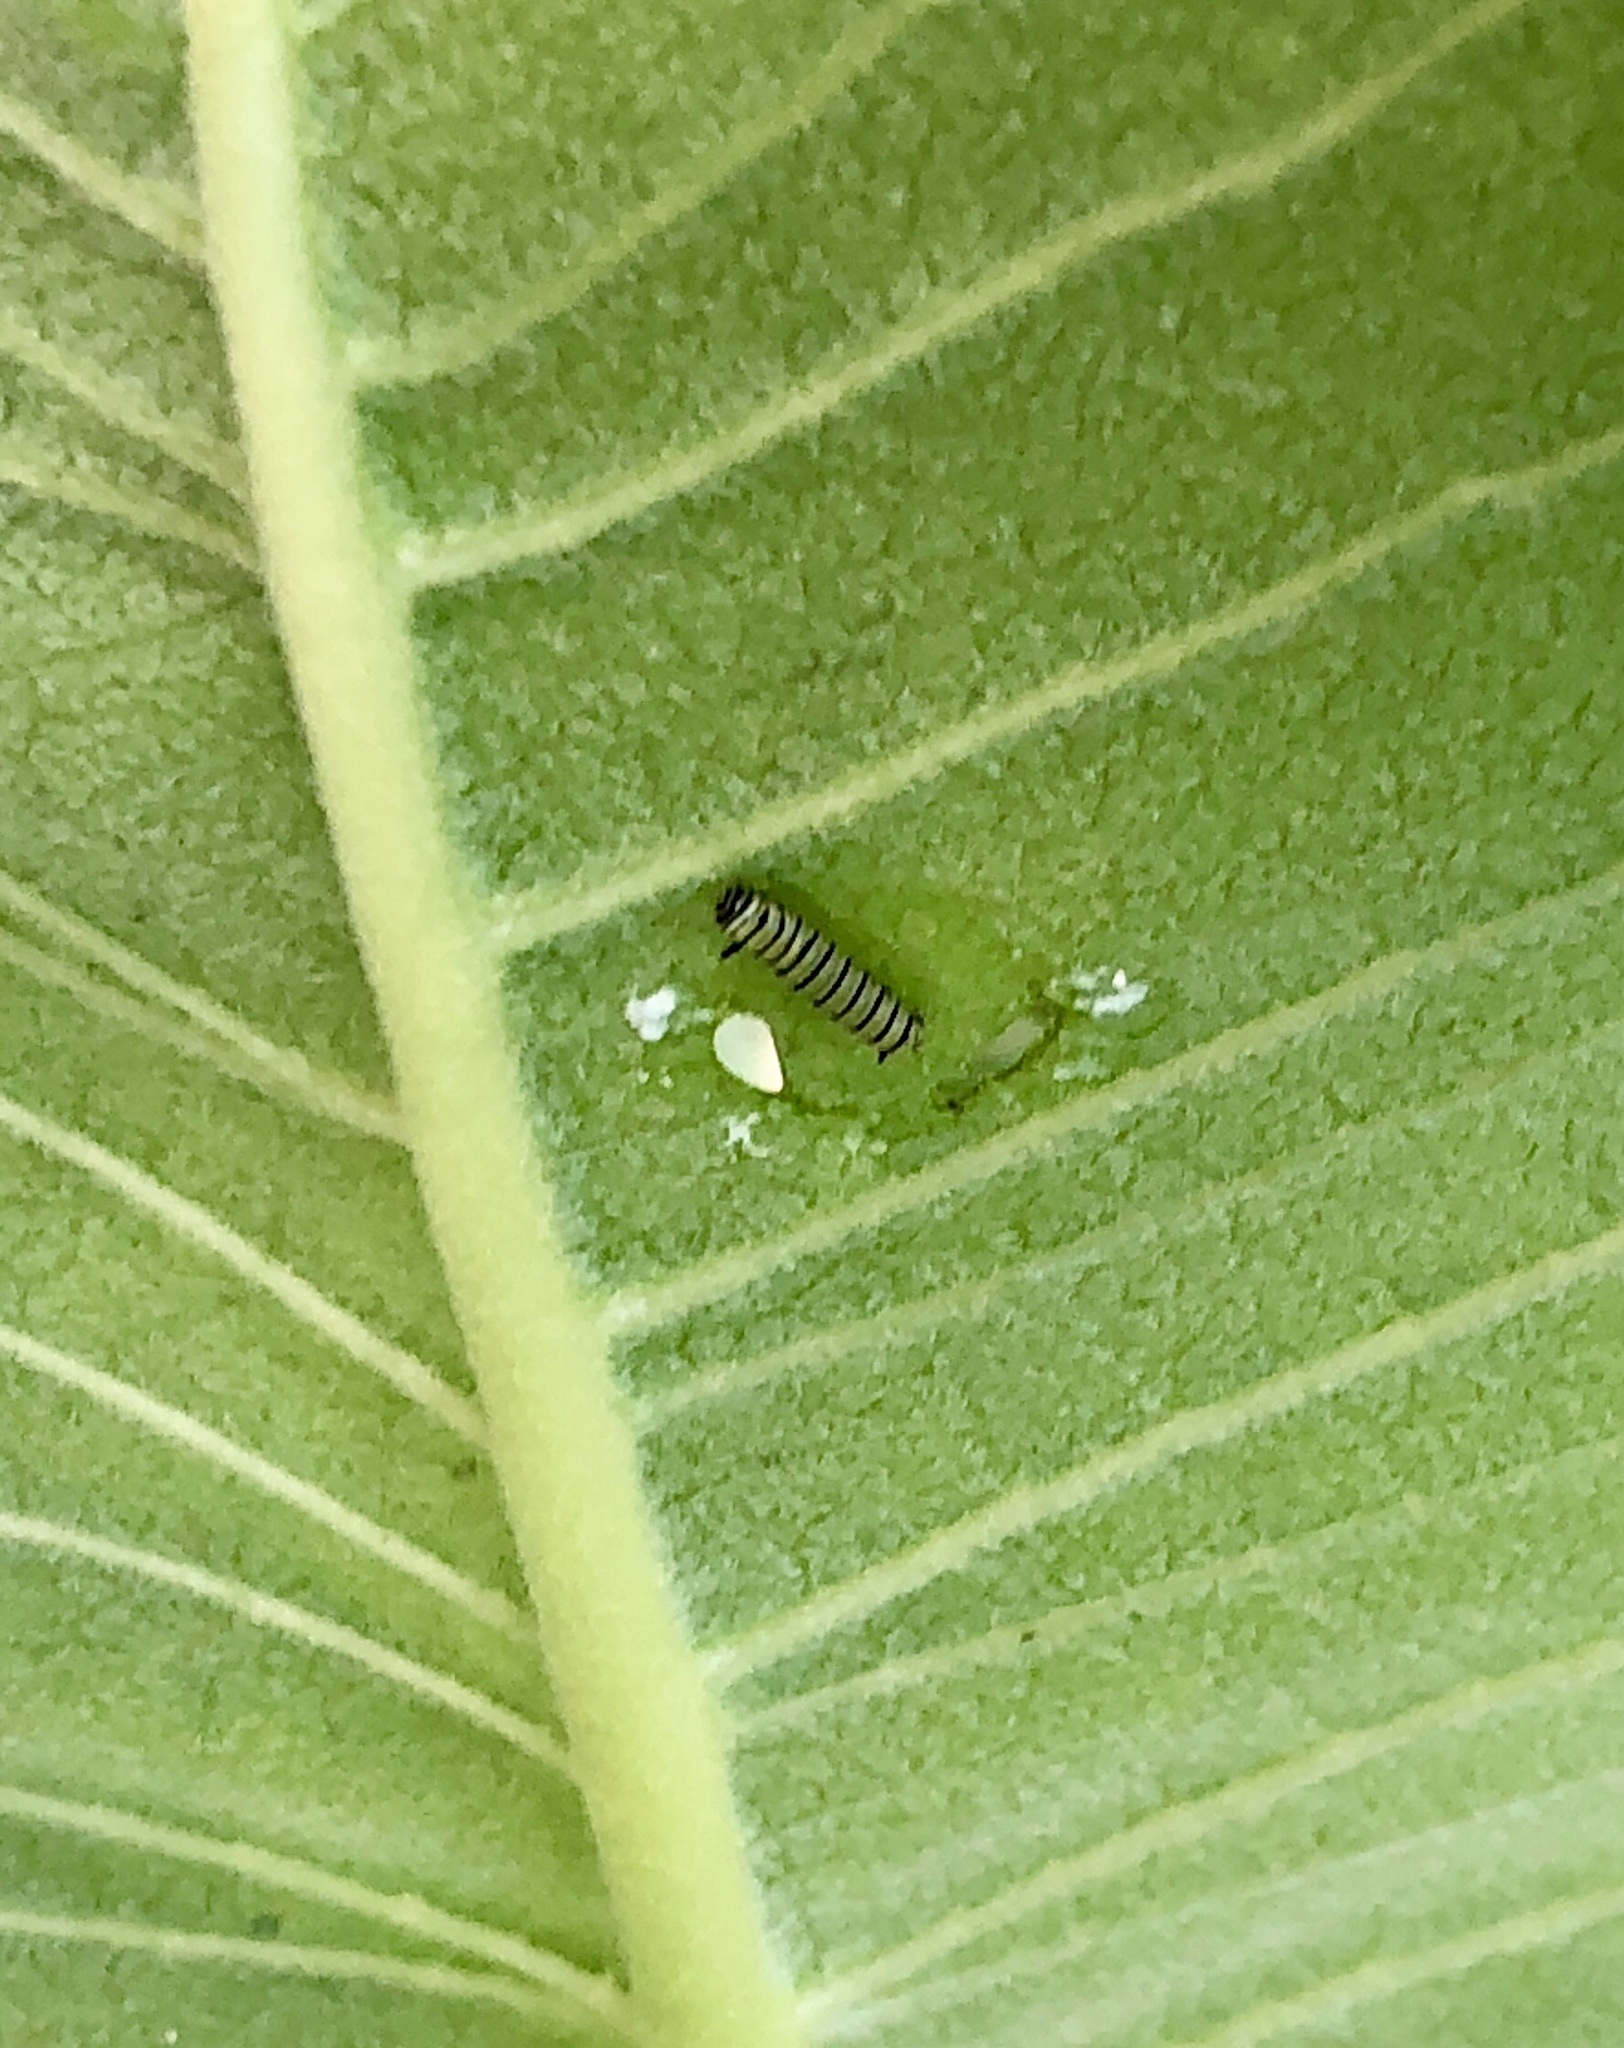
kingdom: Animalia
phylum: Arthropoda
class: Insecta
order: Lepidoptera
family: Nymphalidae
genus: Danaus
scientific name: Danaus plexippus
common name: Monarch
